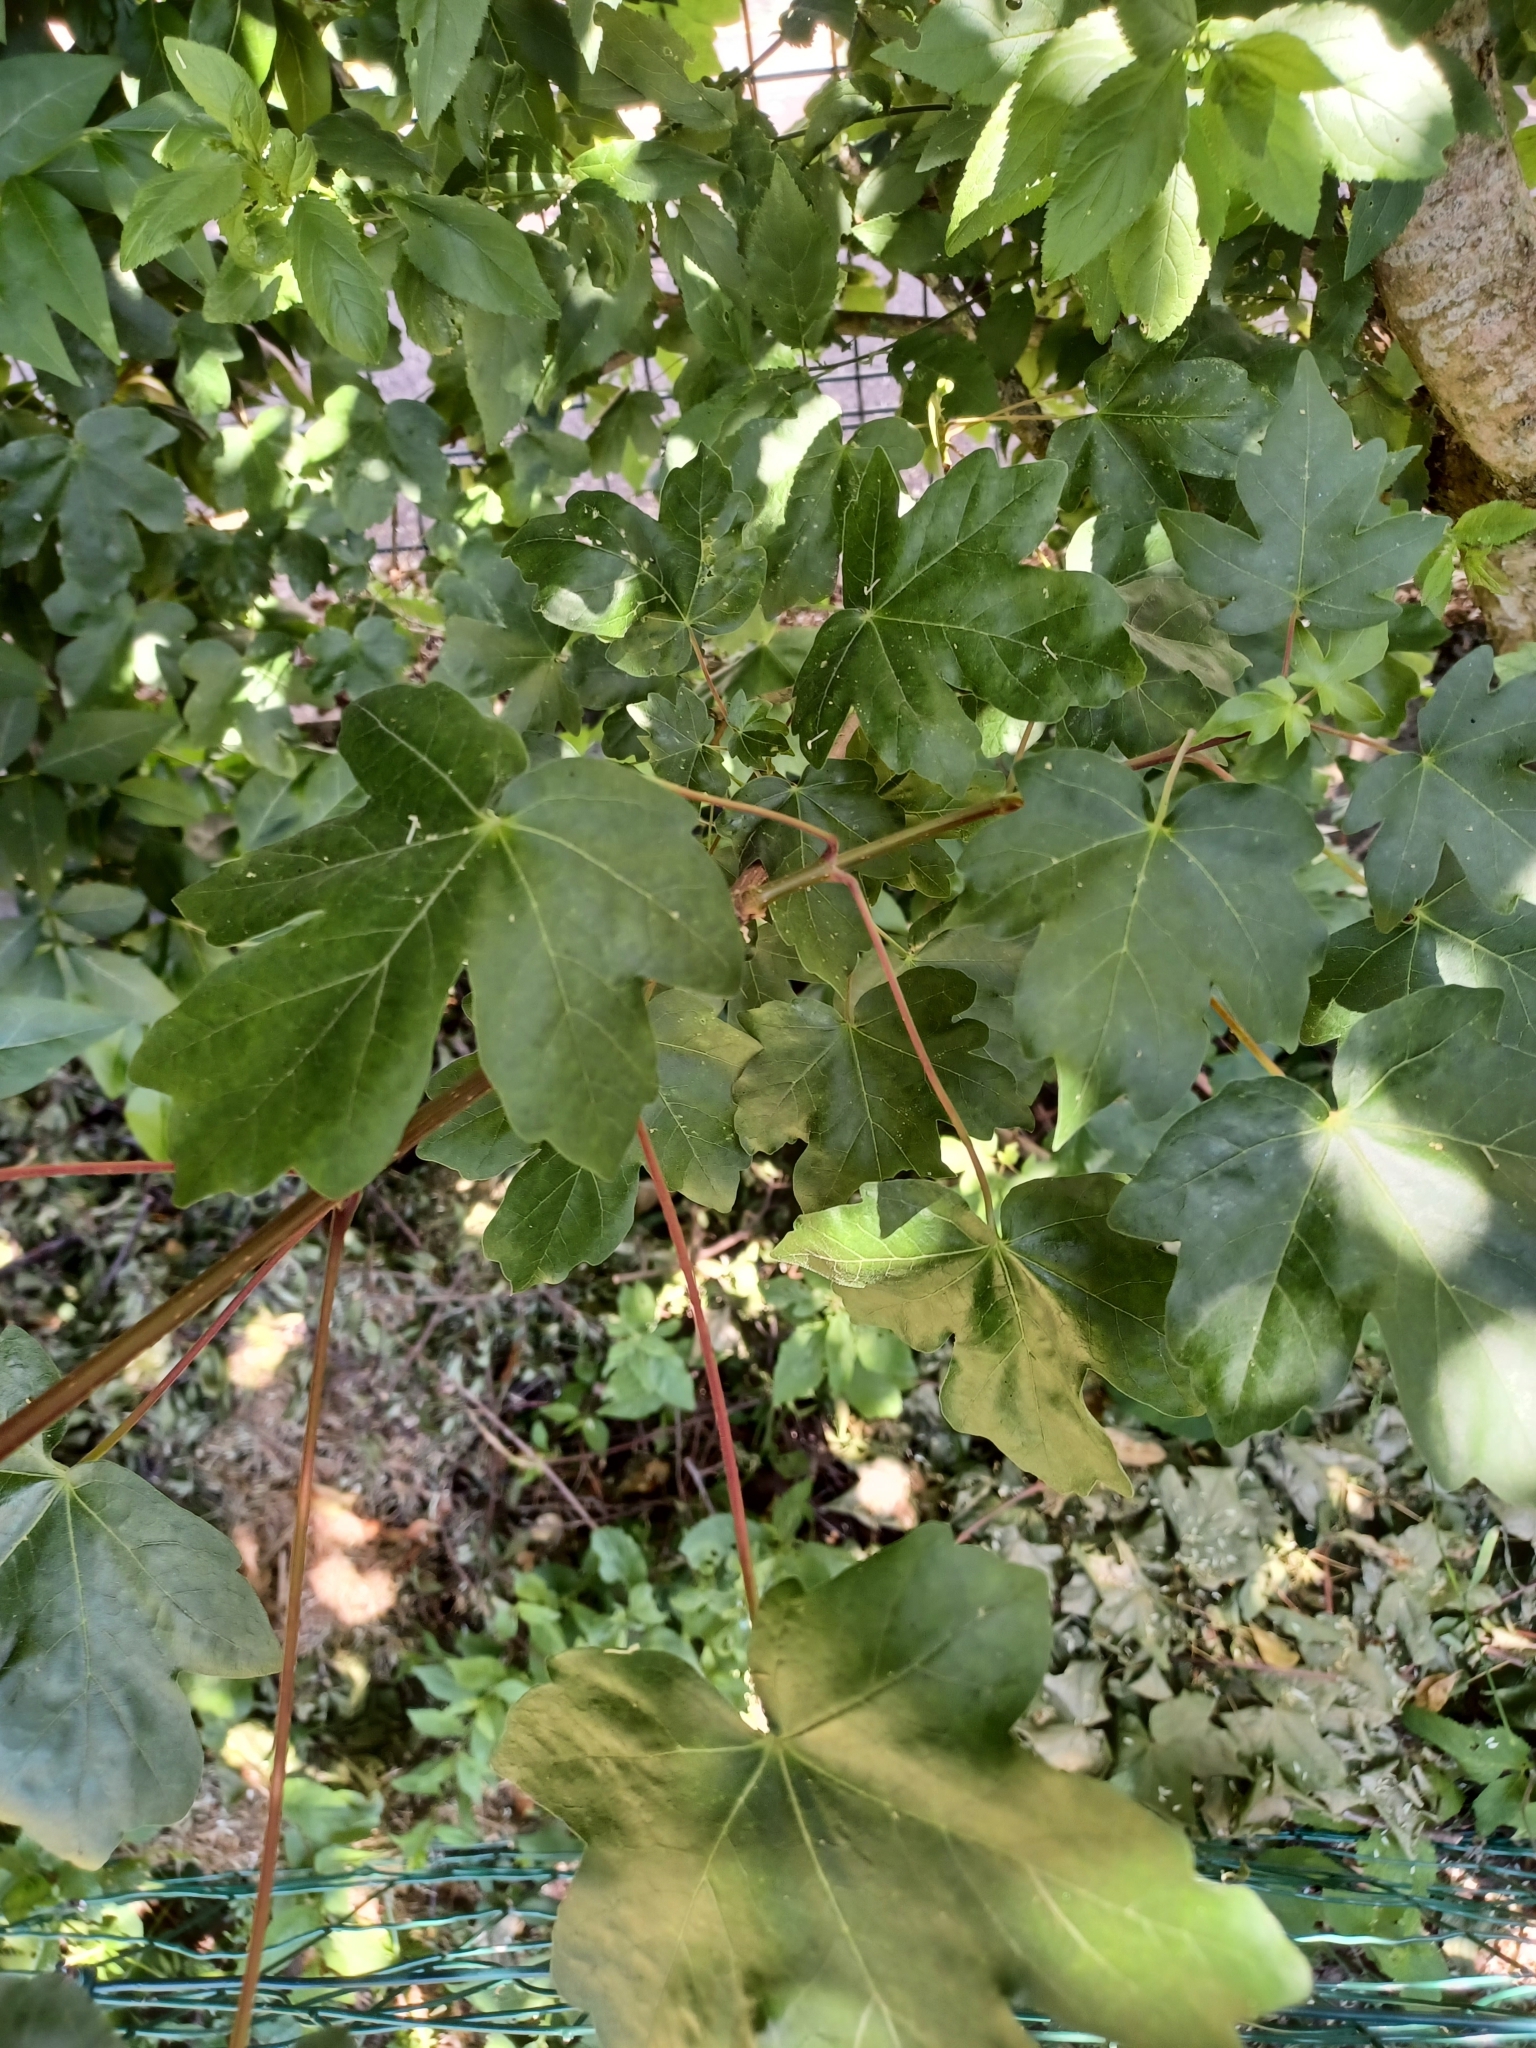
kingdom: Plantae
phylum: Tracheophyta
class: Magnoliopsida
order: Sapindales
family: Sapindaceae
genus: Acer
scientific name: Acer campestre
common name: Field maple
